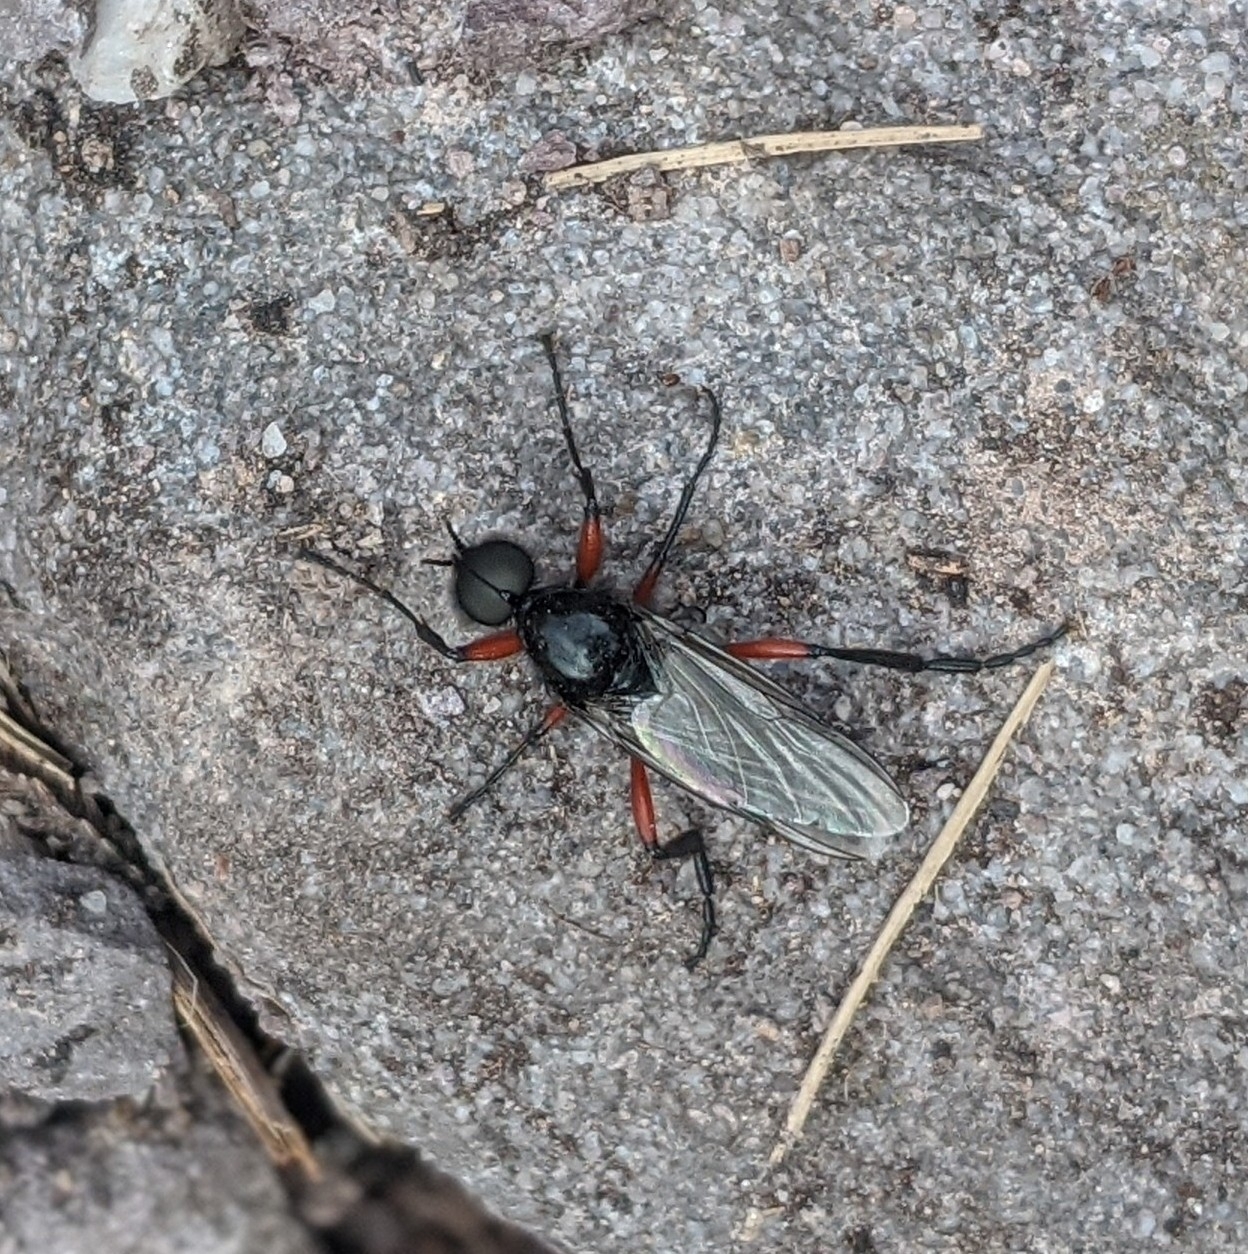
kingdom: Animalia
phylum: Arthropoda
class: Insecta
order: Diptera
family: Bibionidae
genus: Bibio
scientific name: Bibio pomonae
